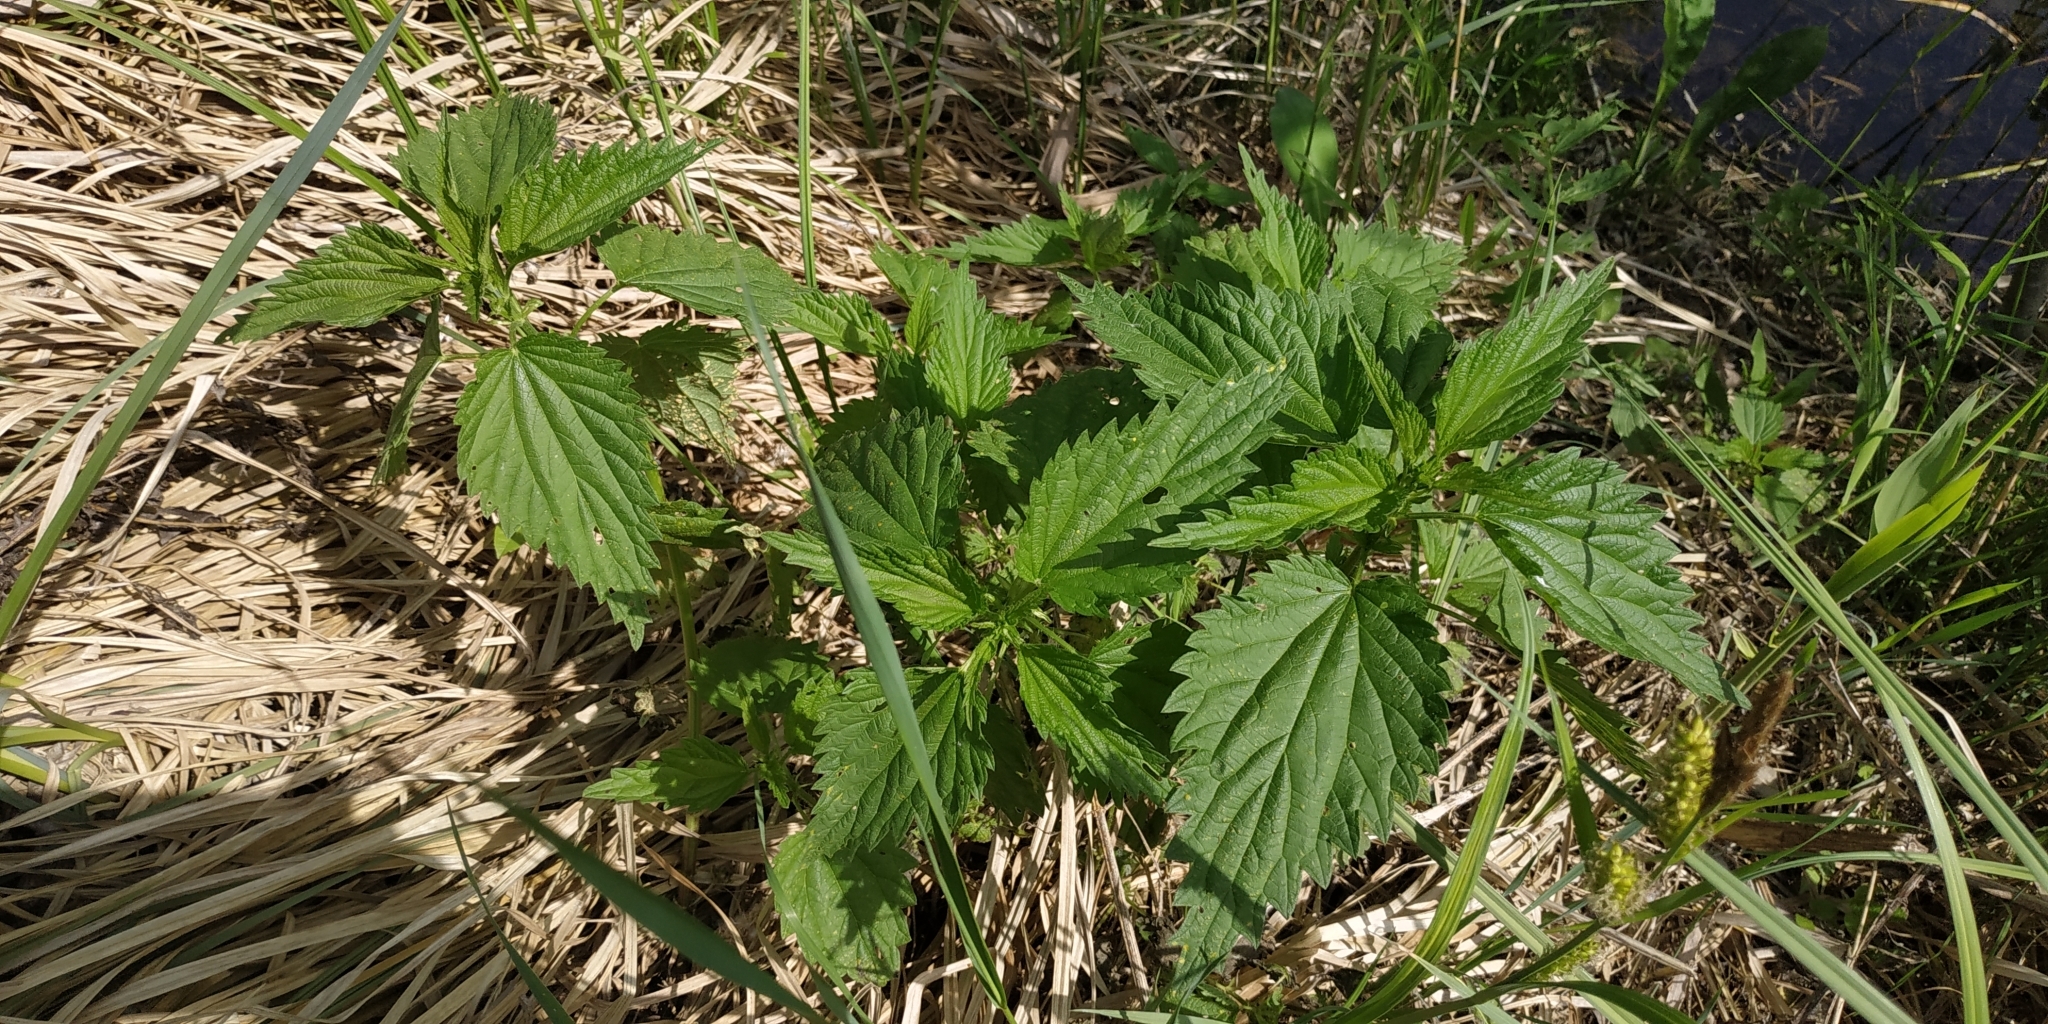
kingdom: Plantae
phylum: Tracheophyta
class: Magnoliopsida
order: Rosales
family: Urticaceae
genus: Urtica
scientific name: Urtica dioica
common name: Common nettle
